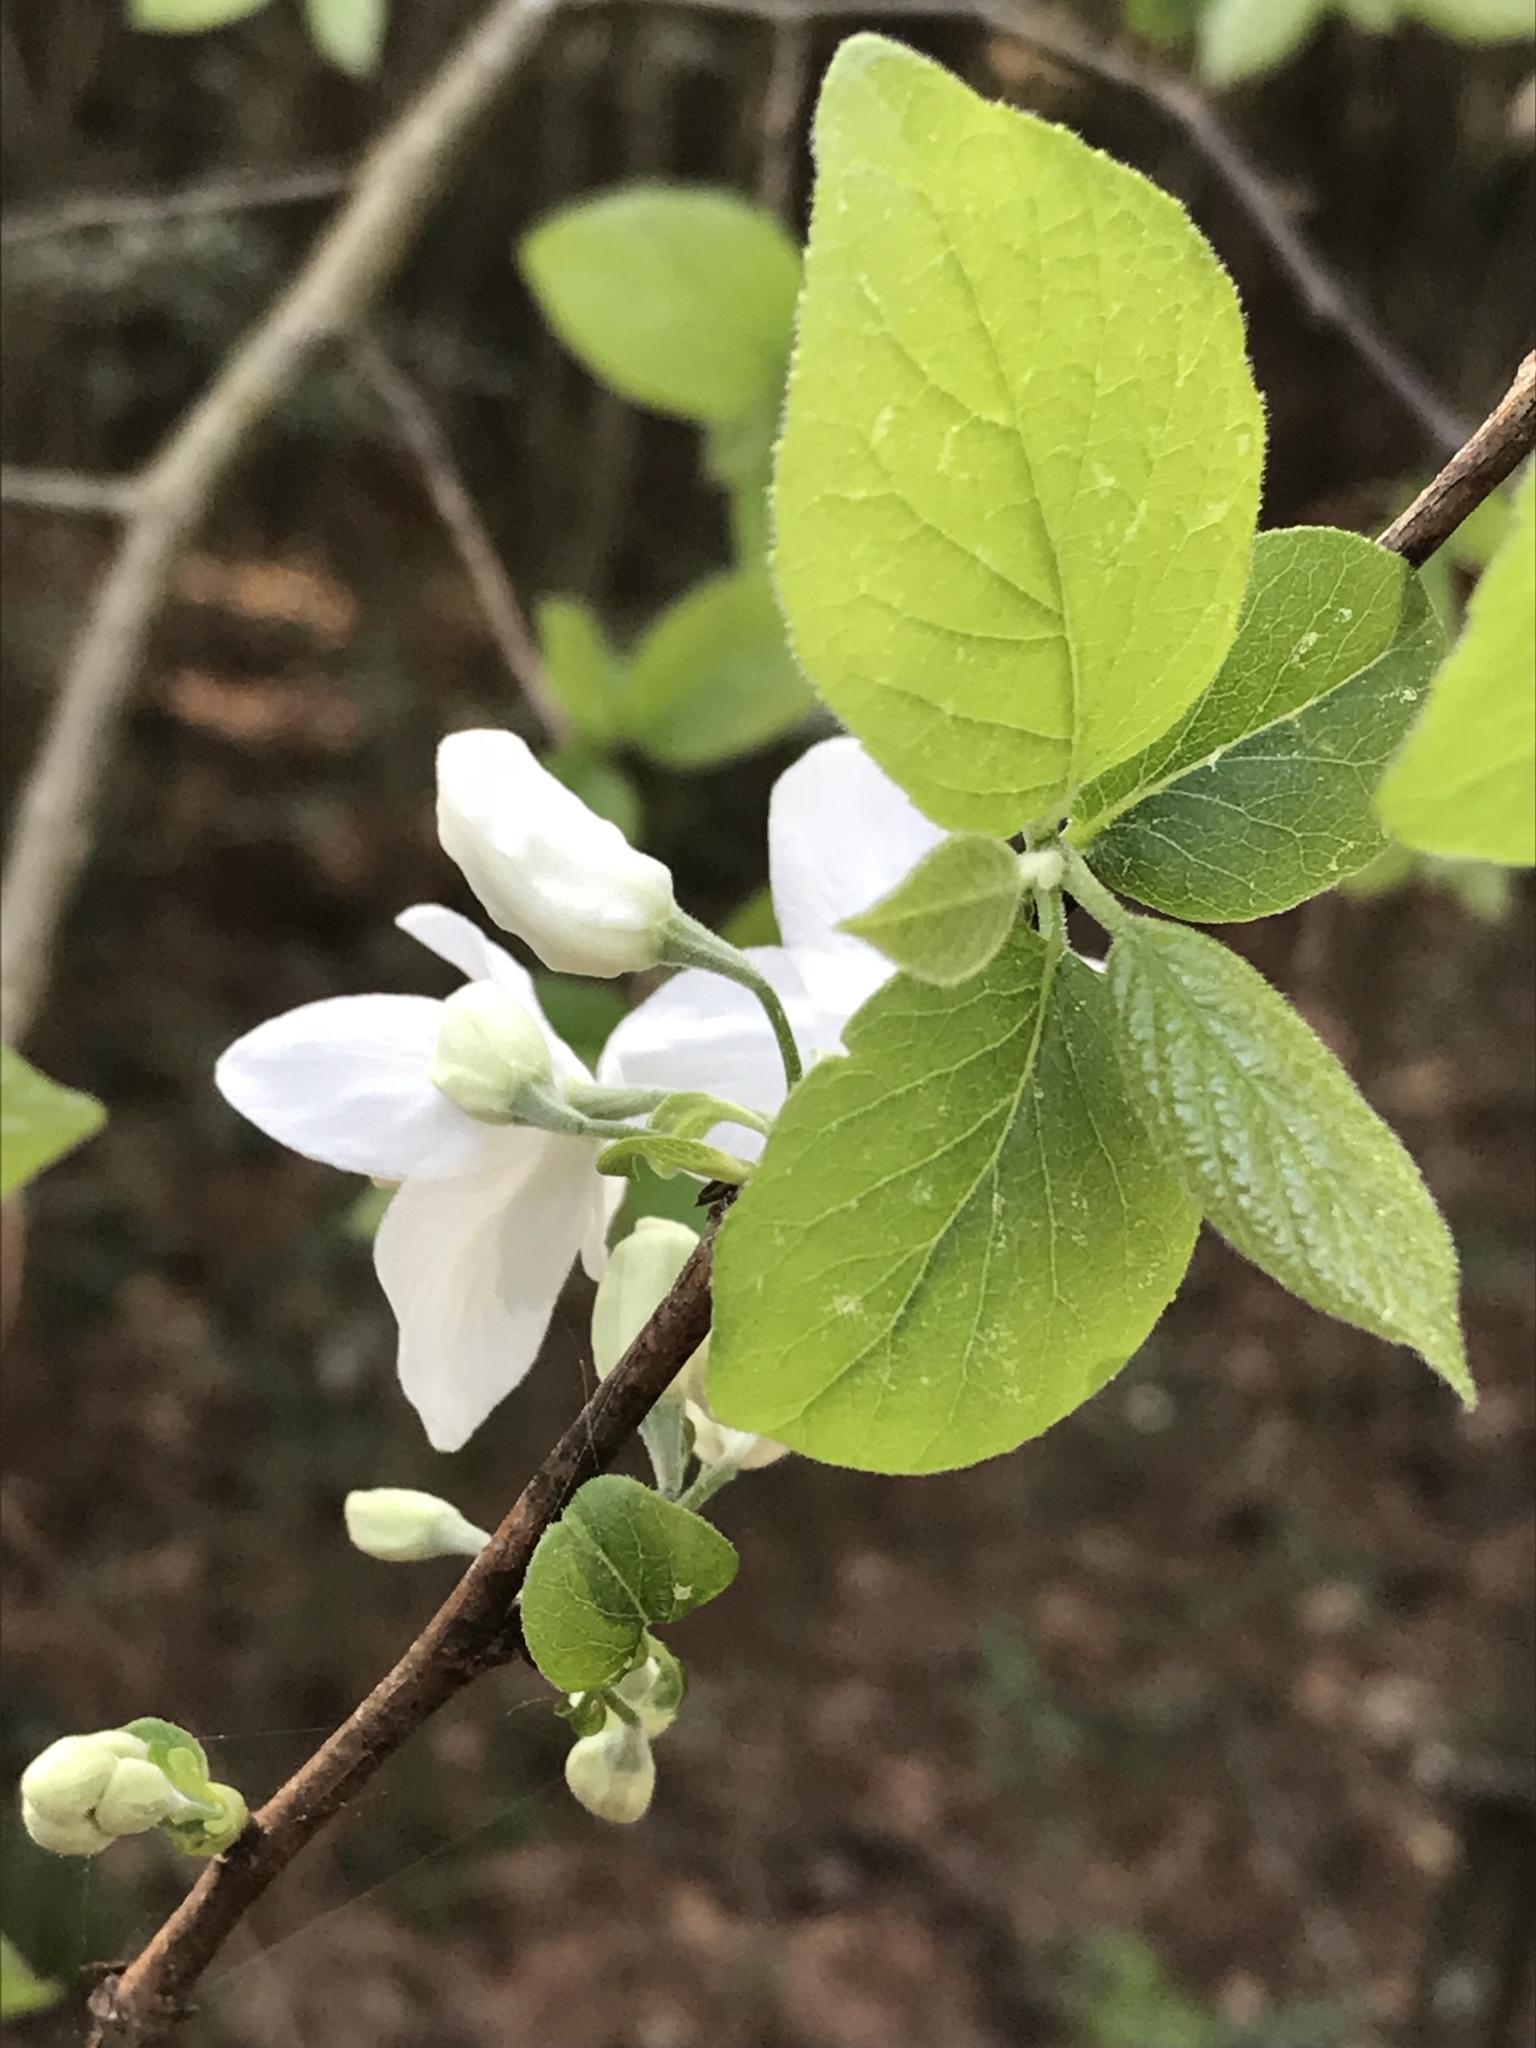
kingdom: Plantae
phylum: Tracheophyta
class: Magnoliopsida
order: Ericales
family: Styracaceae
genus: Halesia
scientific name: Halesia diptera
